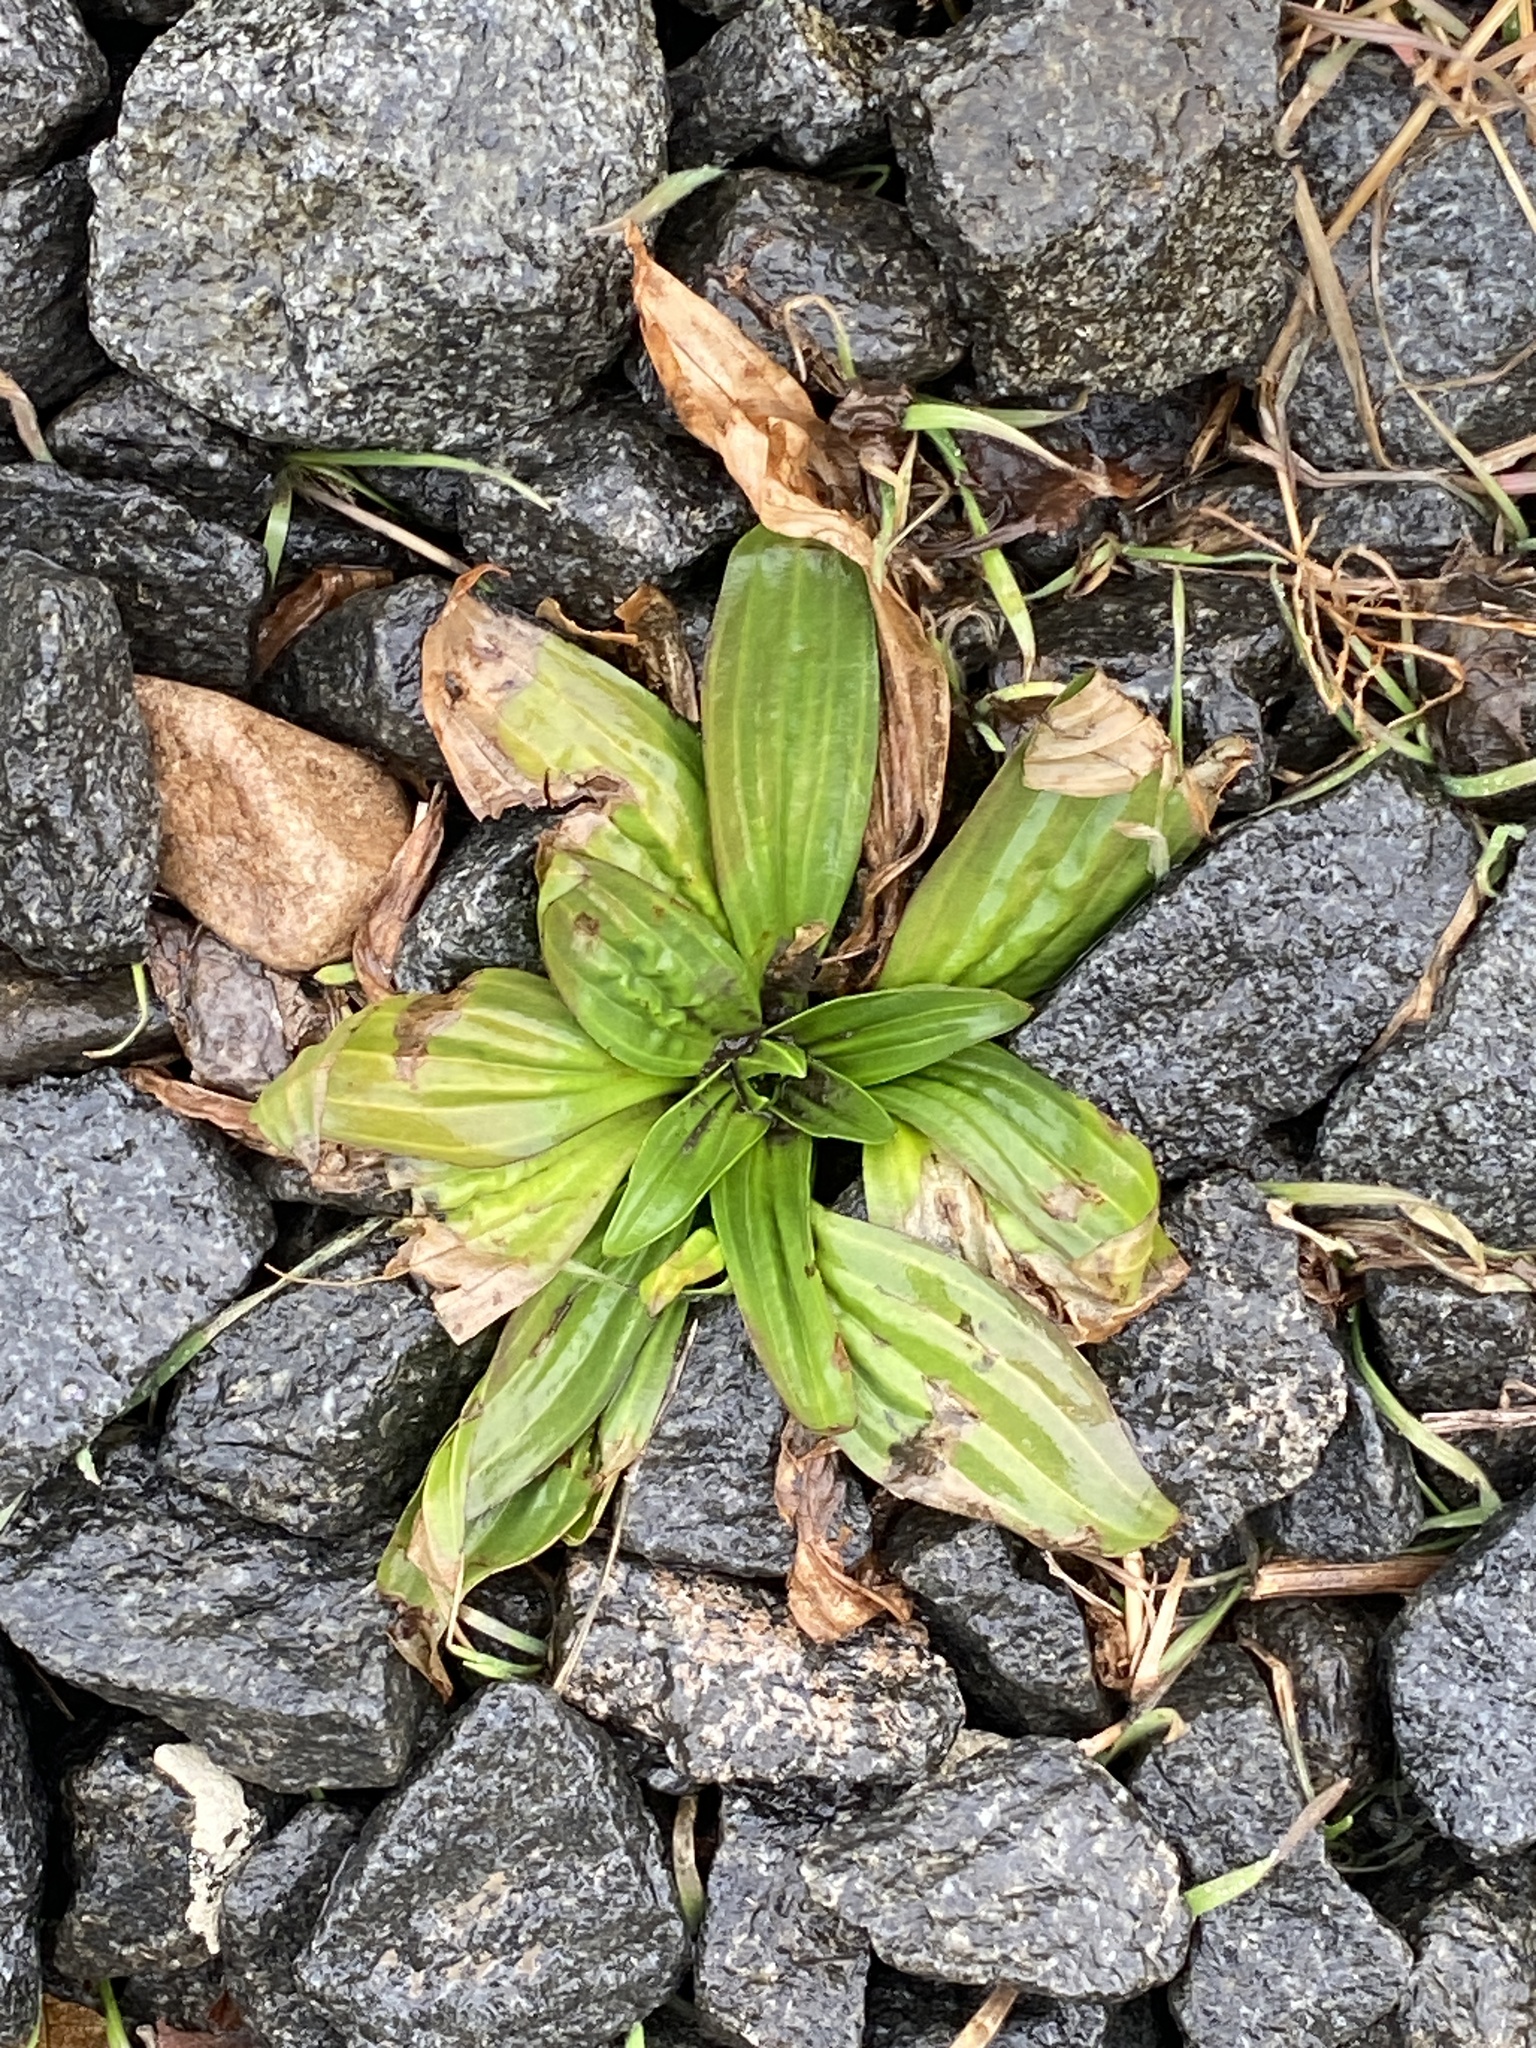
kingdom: Plantae
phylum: Tracheophyta
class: Magnoliopsida
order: Lamiales
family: Plantaginaceae
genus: Plantago
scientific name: Plantago lanceolata
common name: Ribwort plantain
